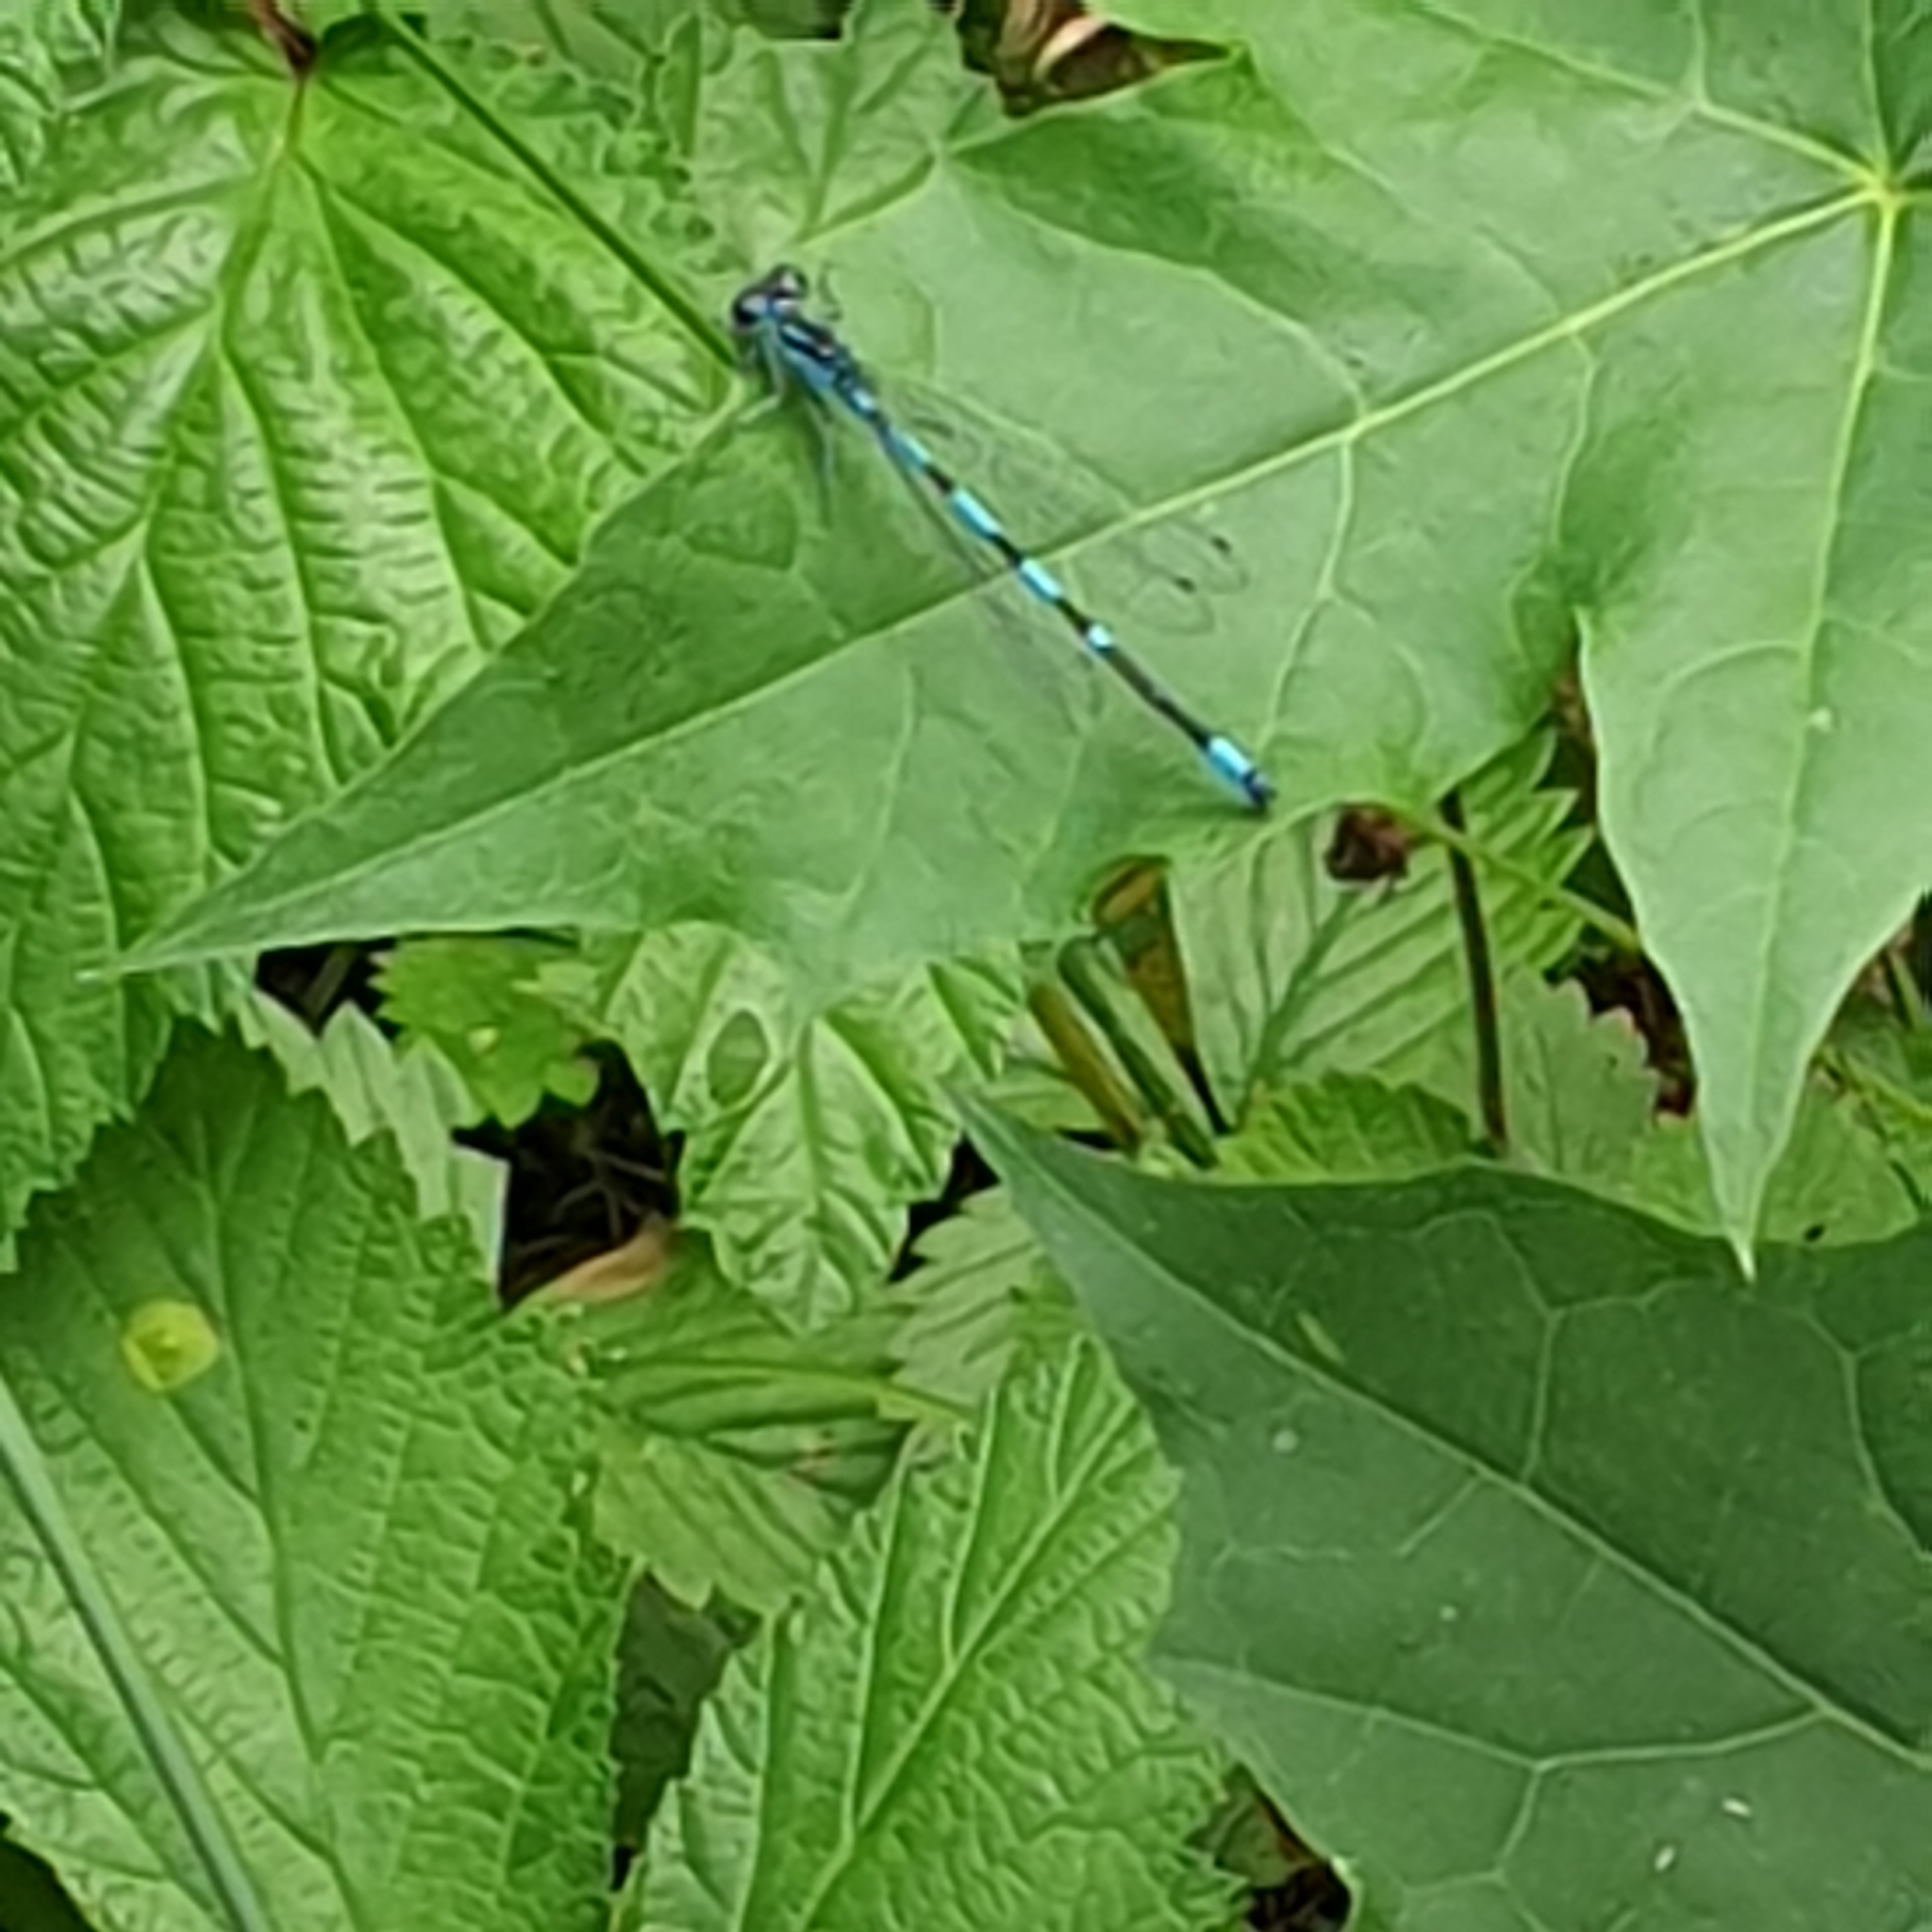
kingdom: Animalia
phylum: Arthropoda
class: Insecta
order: Odonata
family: Coenagrionidae
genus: Coenagrion
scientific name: Coenagrion pulchellum
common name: Variable bluet
